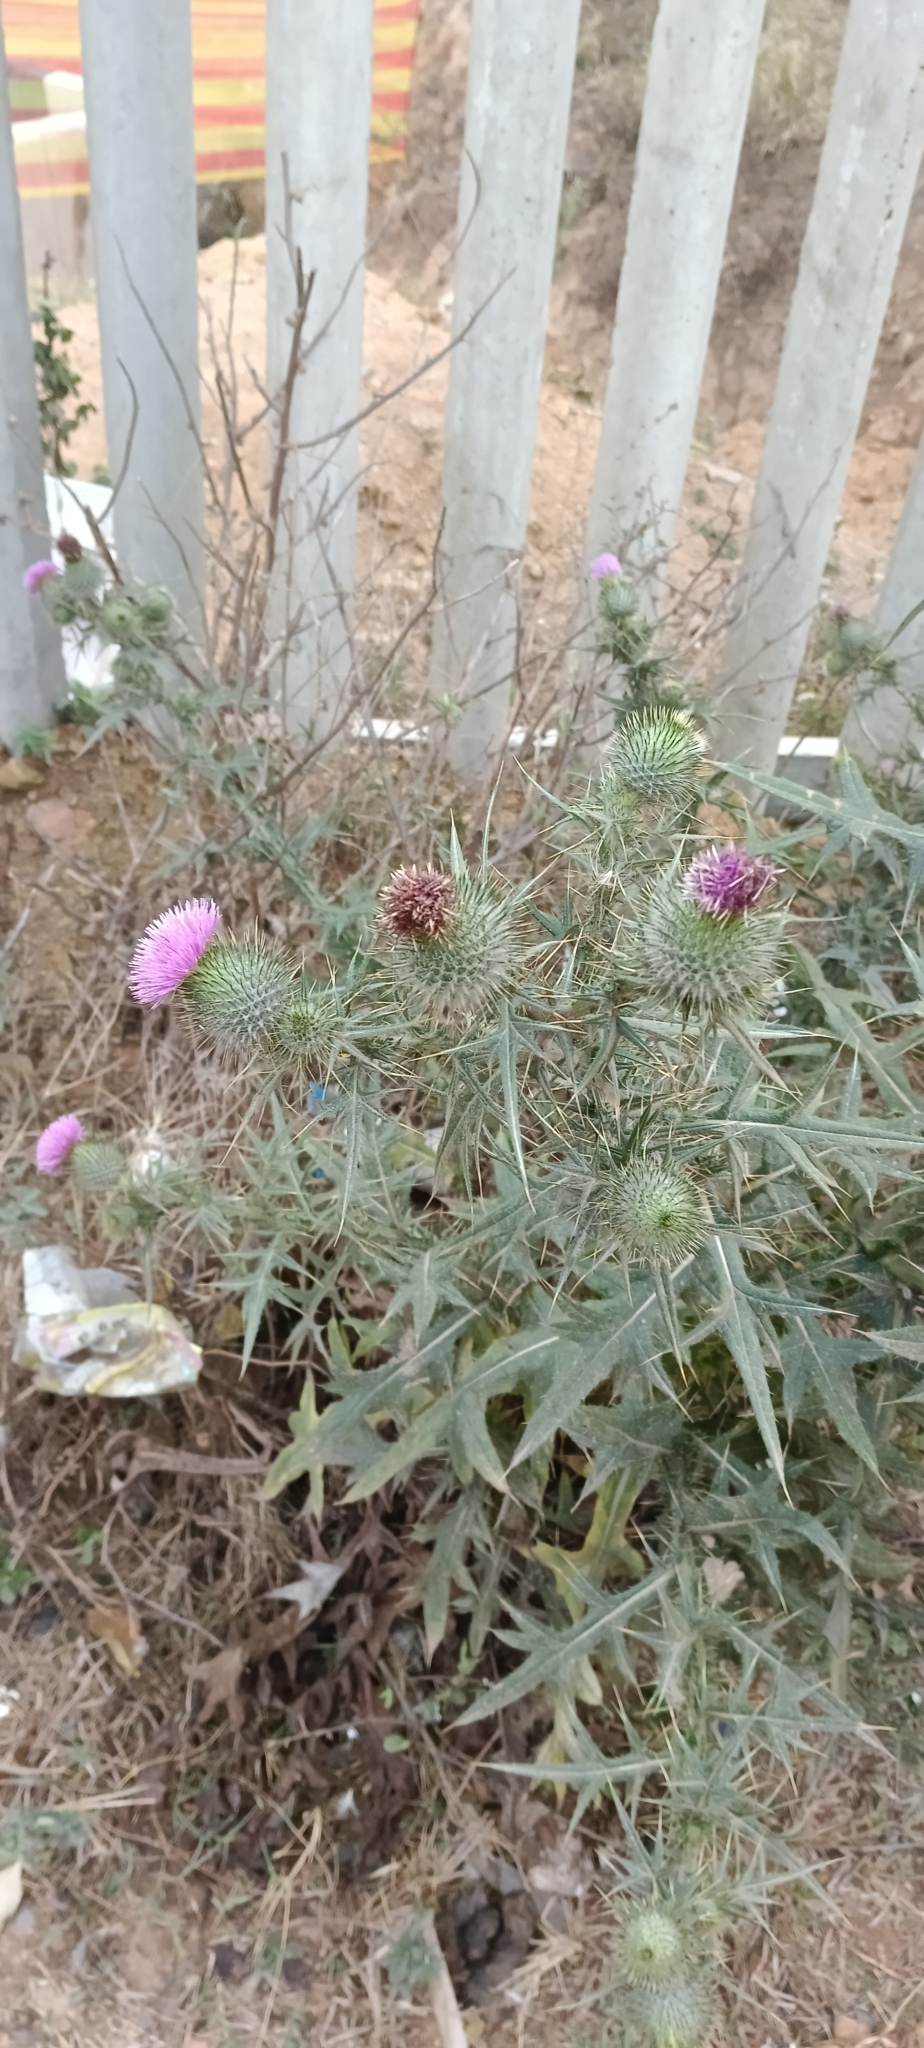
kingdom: Plantae
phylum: Tracheophyta
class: Magnoliopsida
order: Asterales
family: Asteraceae
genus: Cirsium
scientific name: Cirsium vulgare
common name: Bull thistle
